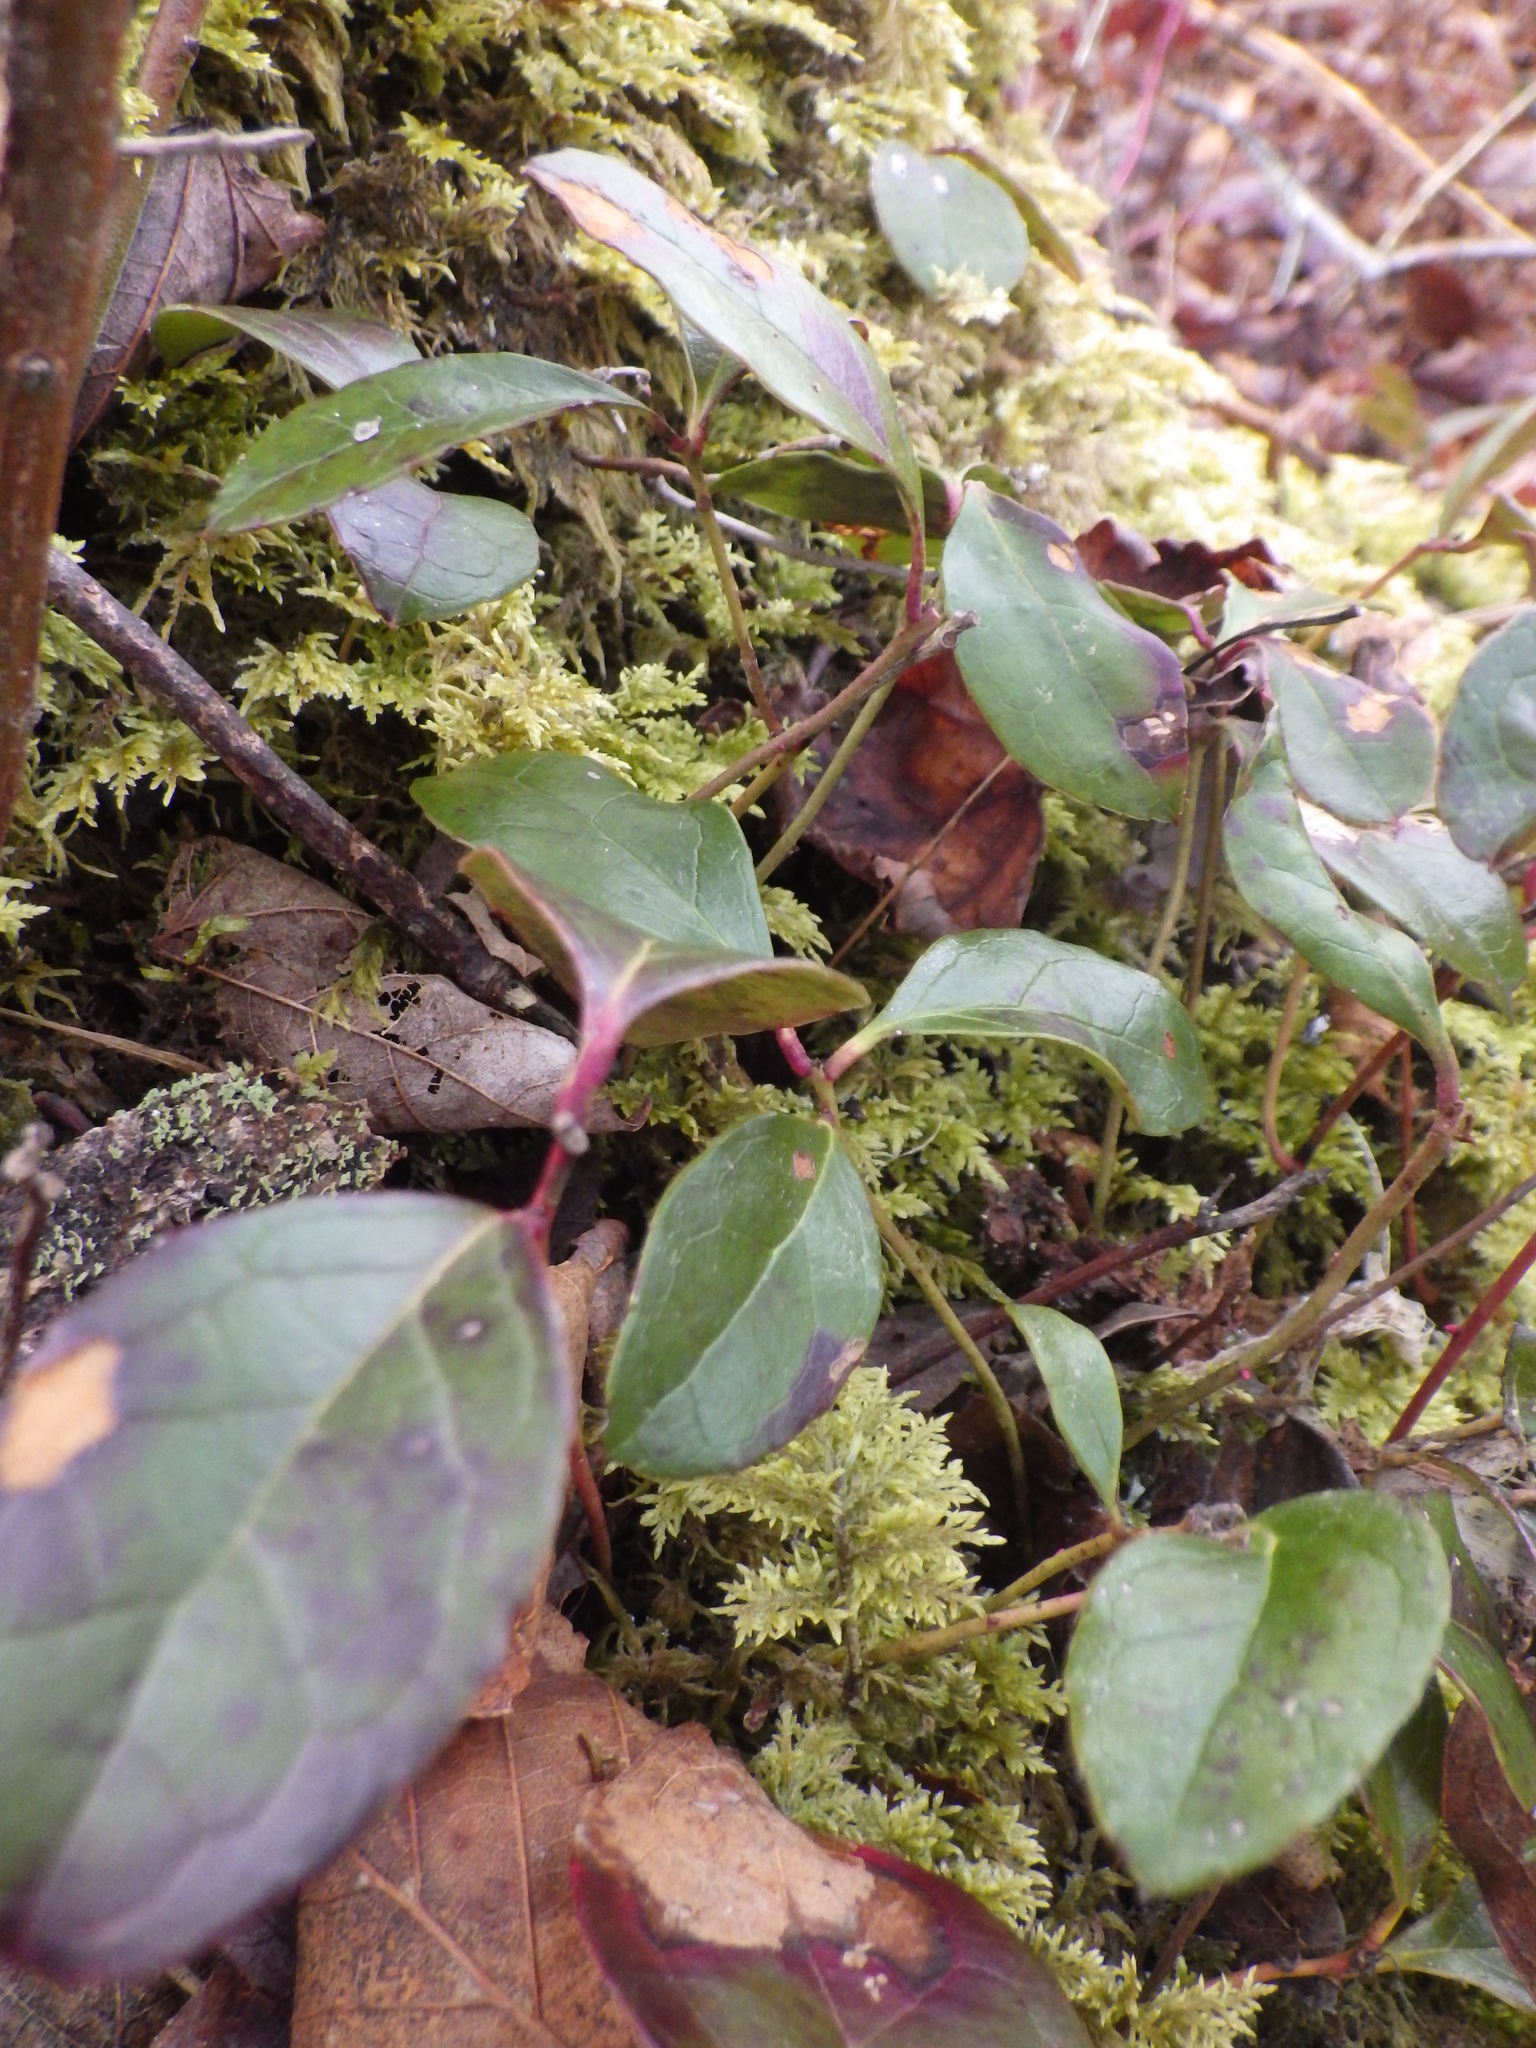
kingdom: Plantae
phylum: Tracheophyta
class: Magnoliopsida
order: Ericales
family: Ericaceae
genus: Gaultheria
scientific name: Gaultheria procumbens
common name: Checkerberry
